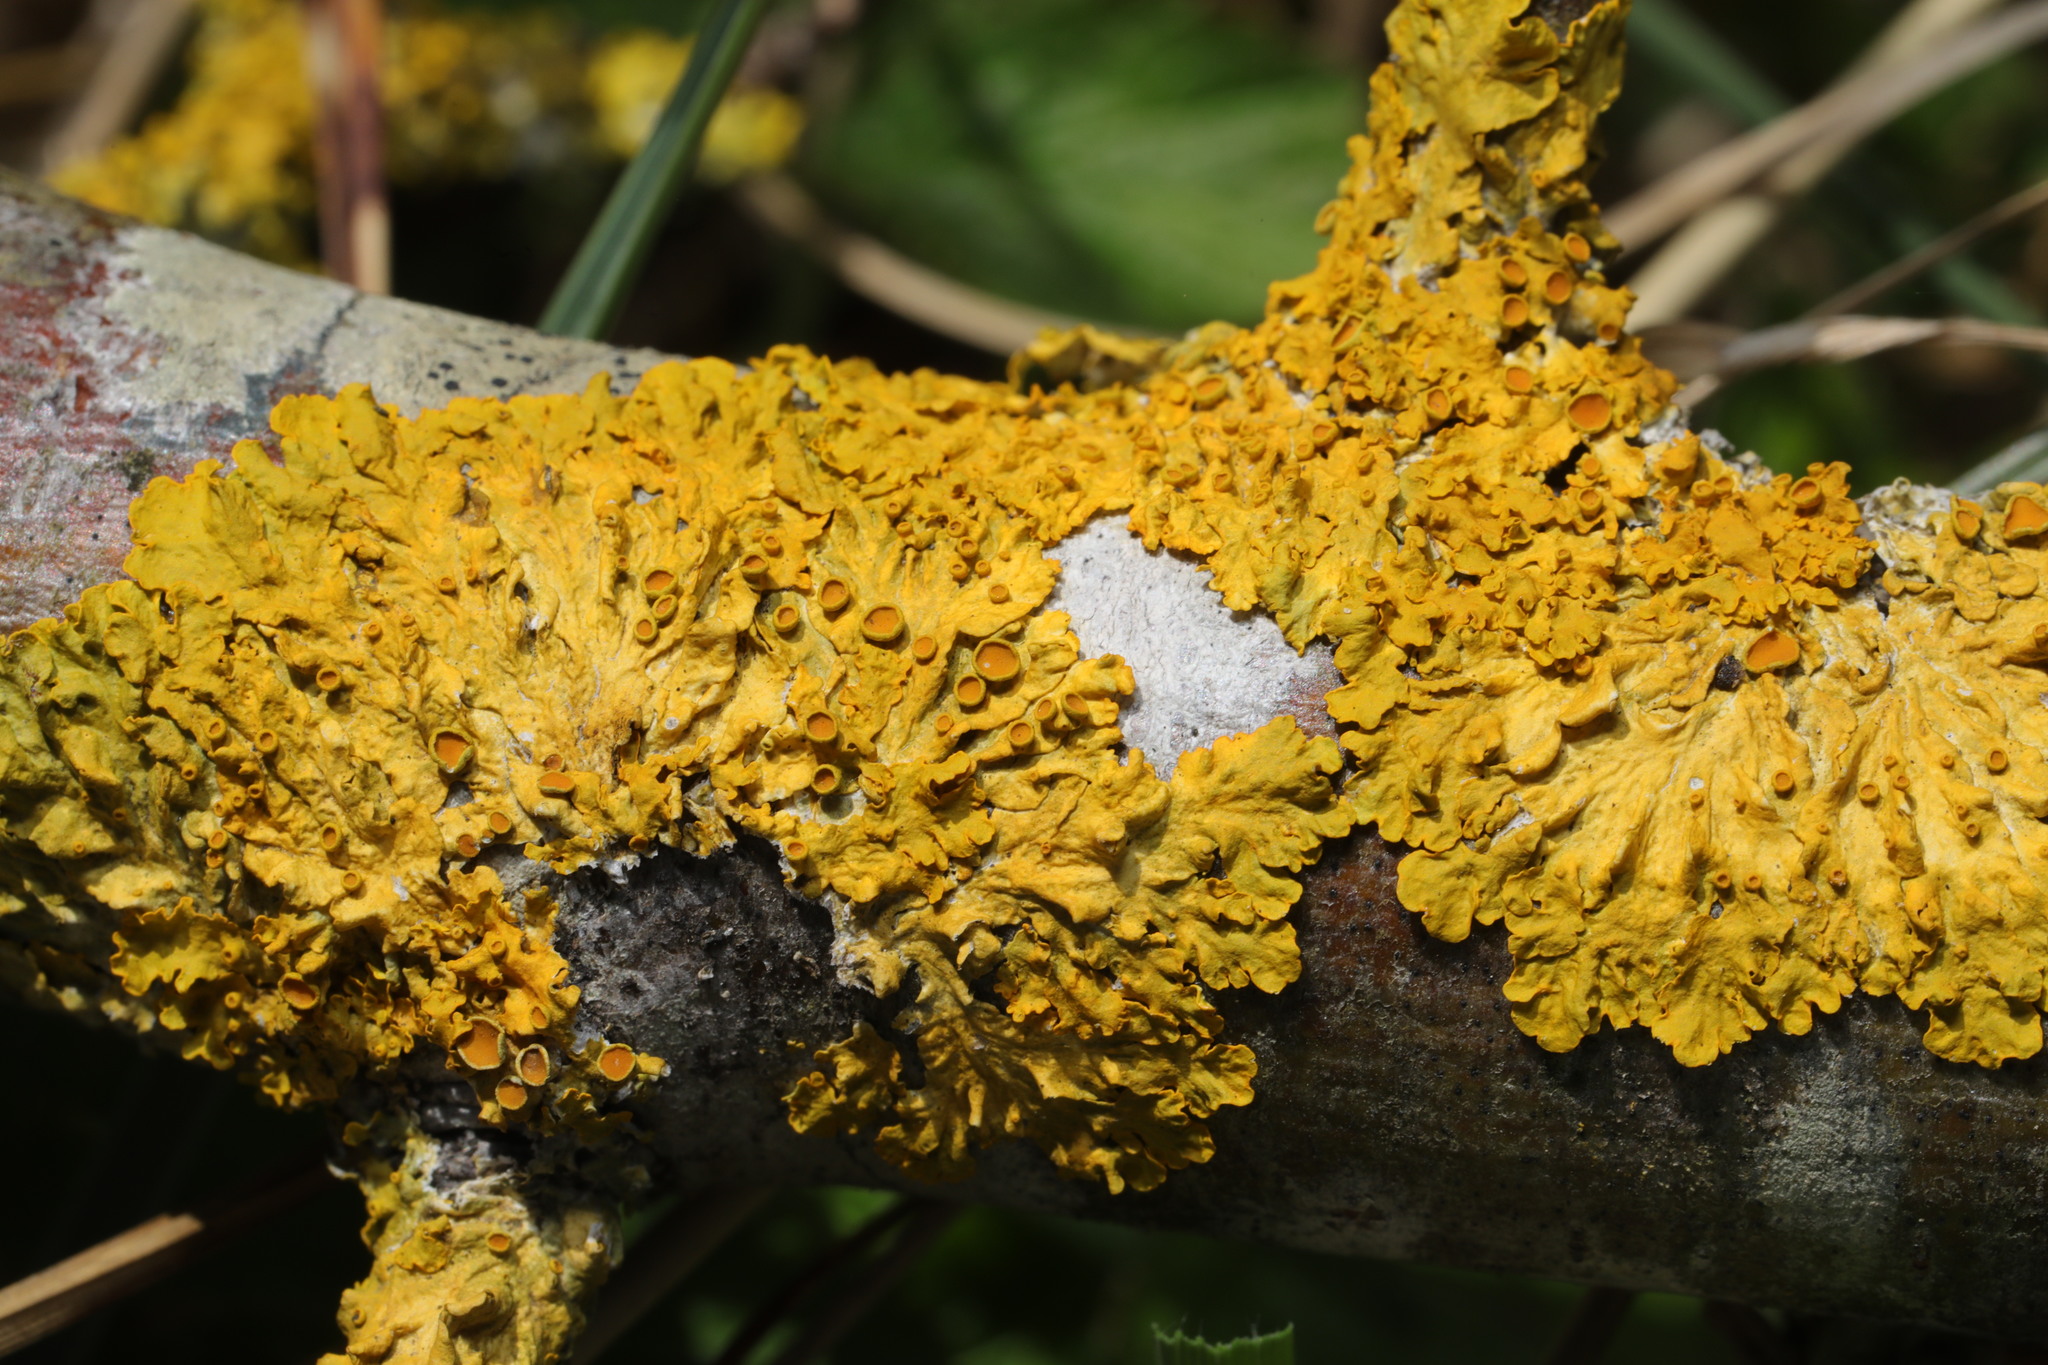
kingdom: Fungi
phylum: Ascomycota
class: Lecanoromycetes
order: Teloschistales
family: Teloschistaceae
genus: Xanthoria
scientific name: Xanthoria parietina
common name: Common orange lichen
